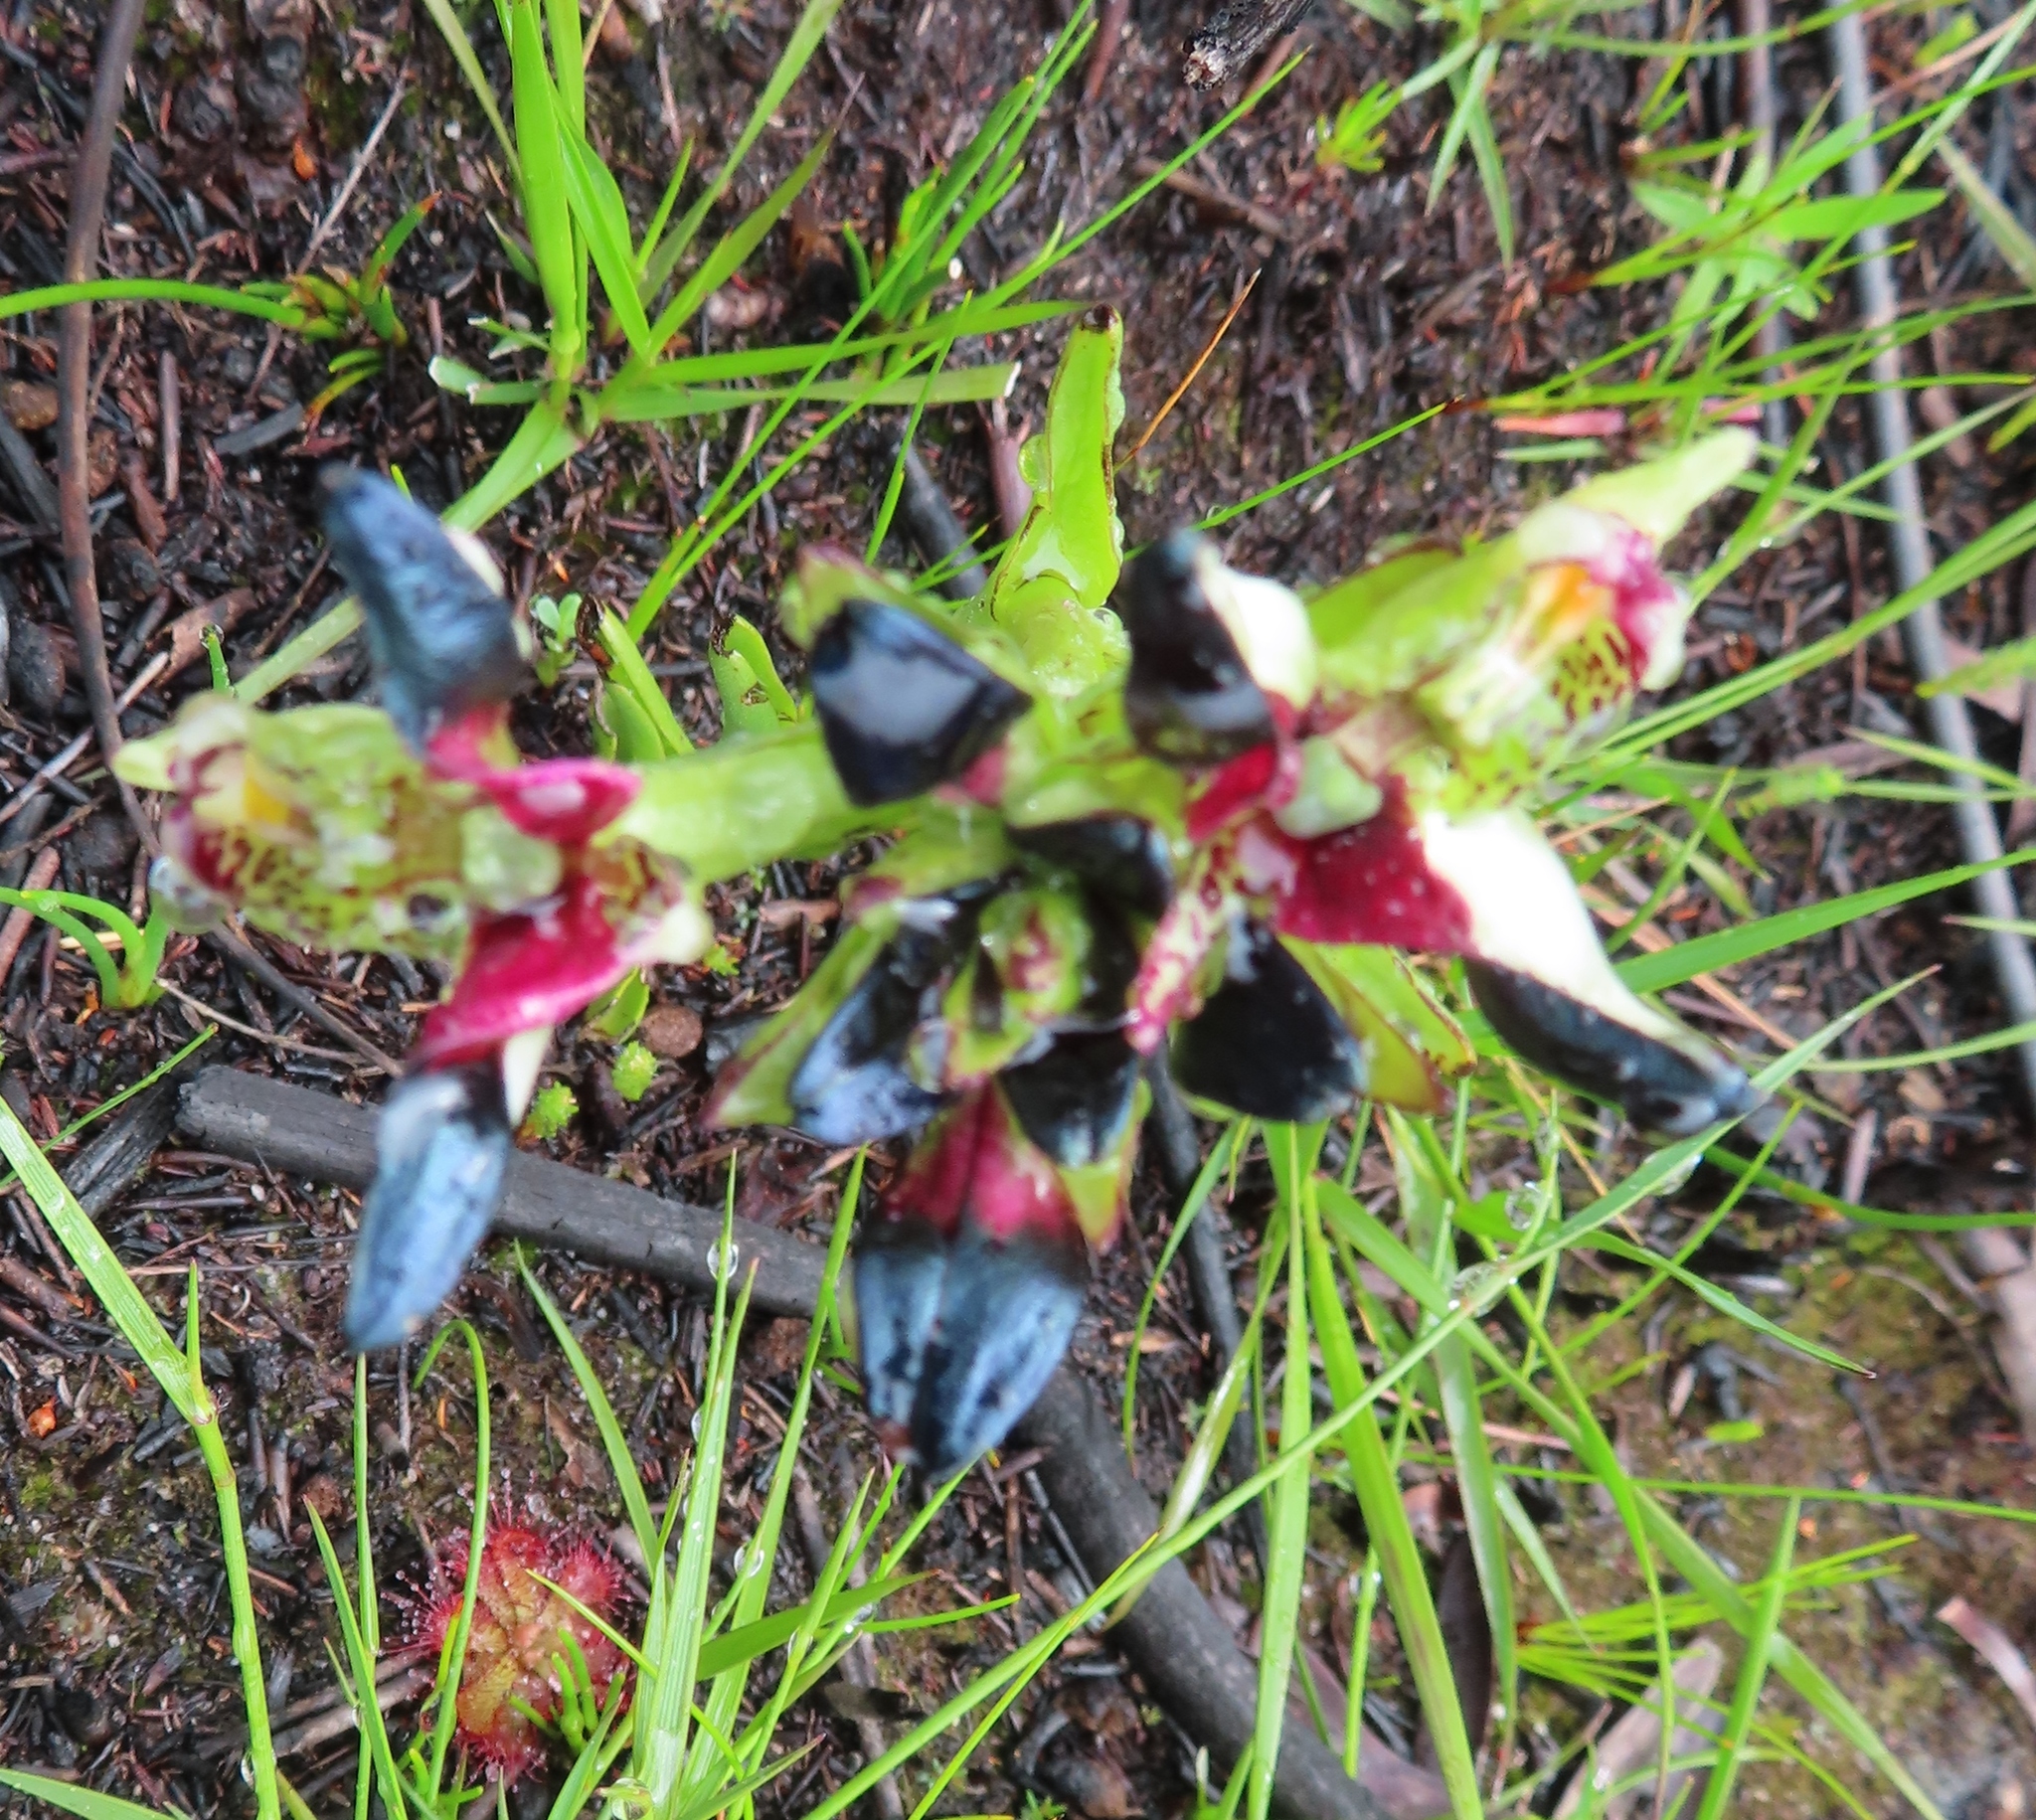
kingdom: Plantae
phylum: Tracheophyta
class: Liliopsida
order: Asparagales
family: Orchidaceae
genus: Disa
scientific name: Disa atricapilla
